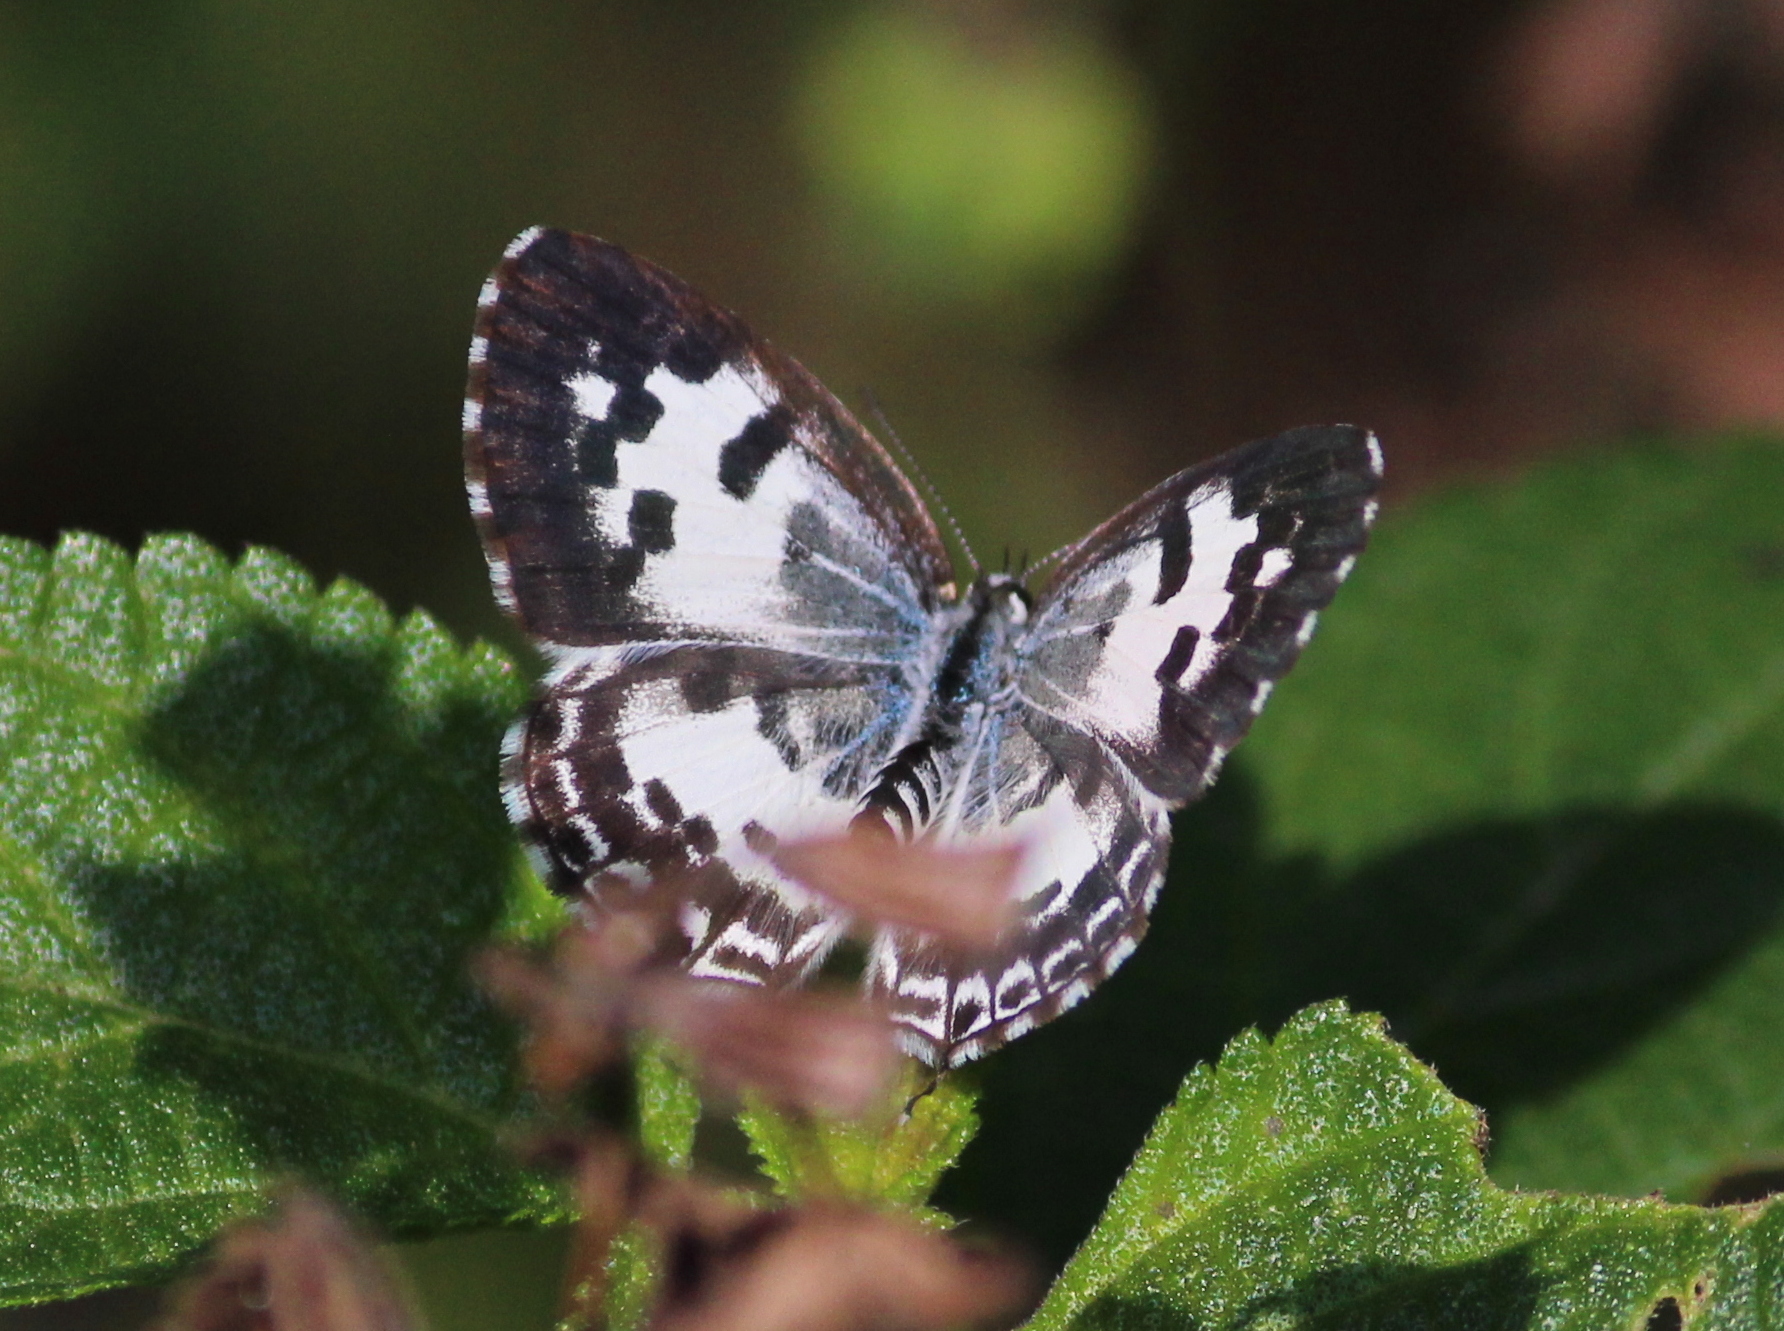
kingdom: Animalia
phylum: Arthropoda
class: Insecta
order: Lepidoptera
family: Lycaenidae
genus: Castalius
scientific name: Castalius rosimon
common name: Common pierrot
